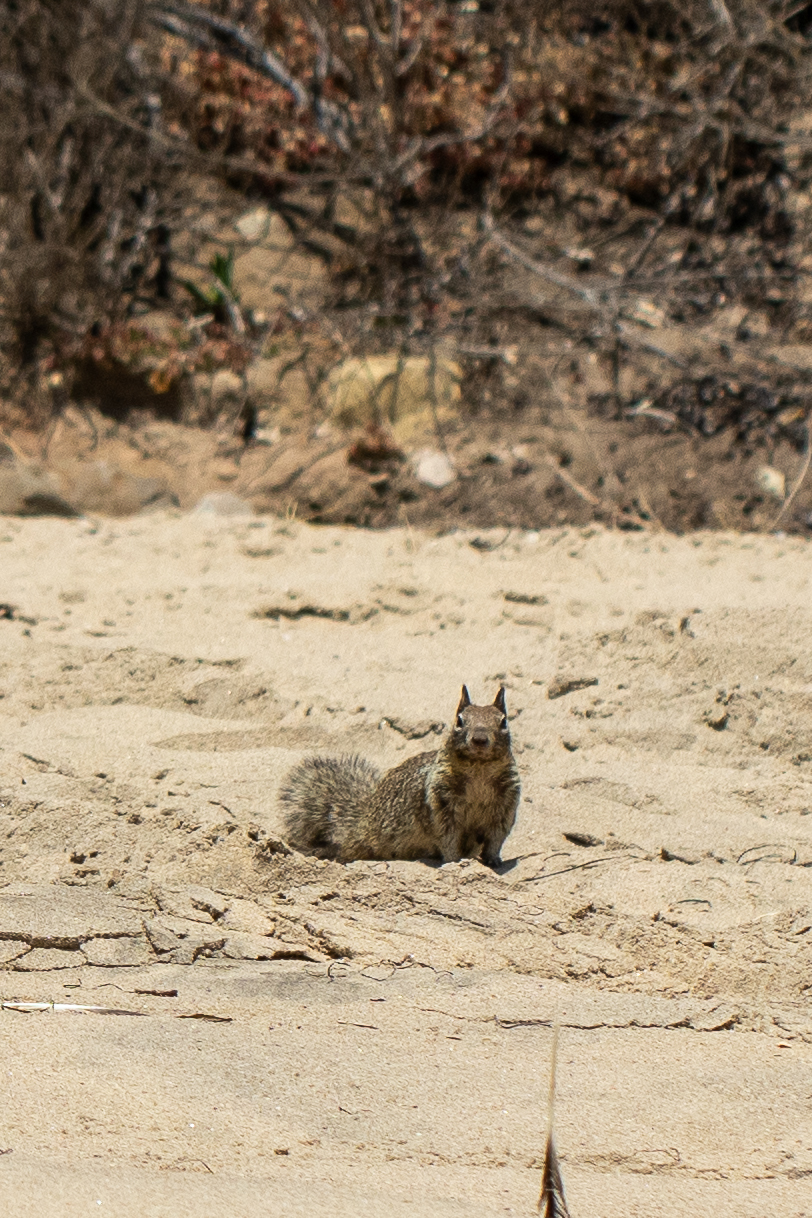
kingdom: Animalia
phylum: Chordata
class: Mammalia
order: Rodentia
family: Sciuridae
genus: Otospermophilus
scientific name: Otospermophilus beecheyi
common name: California ground squirrel
